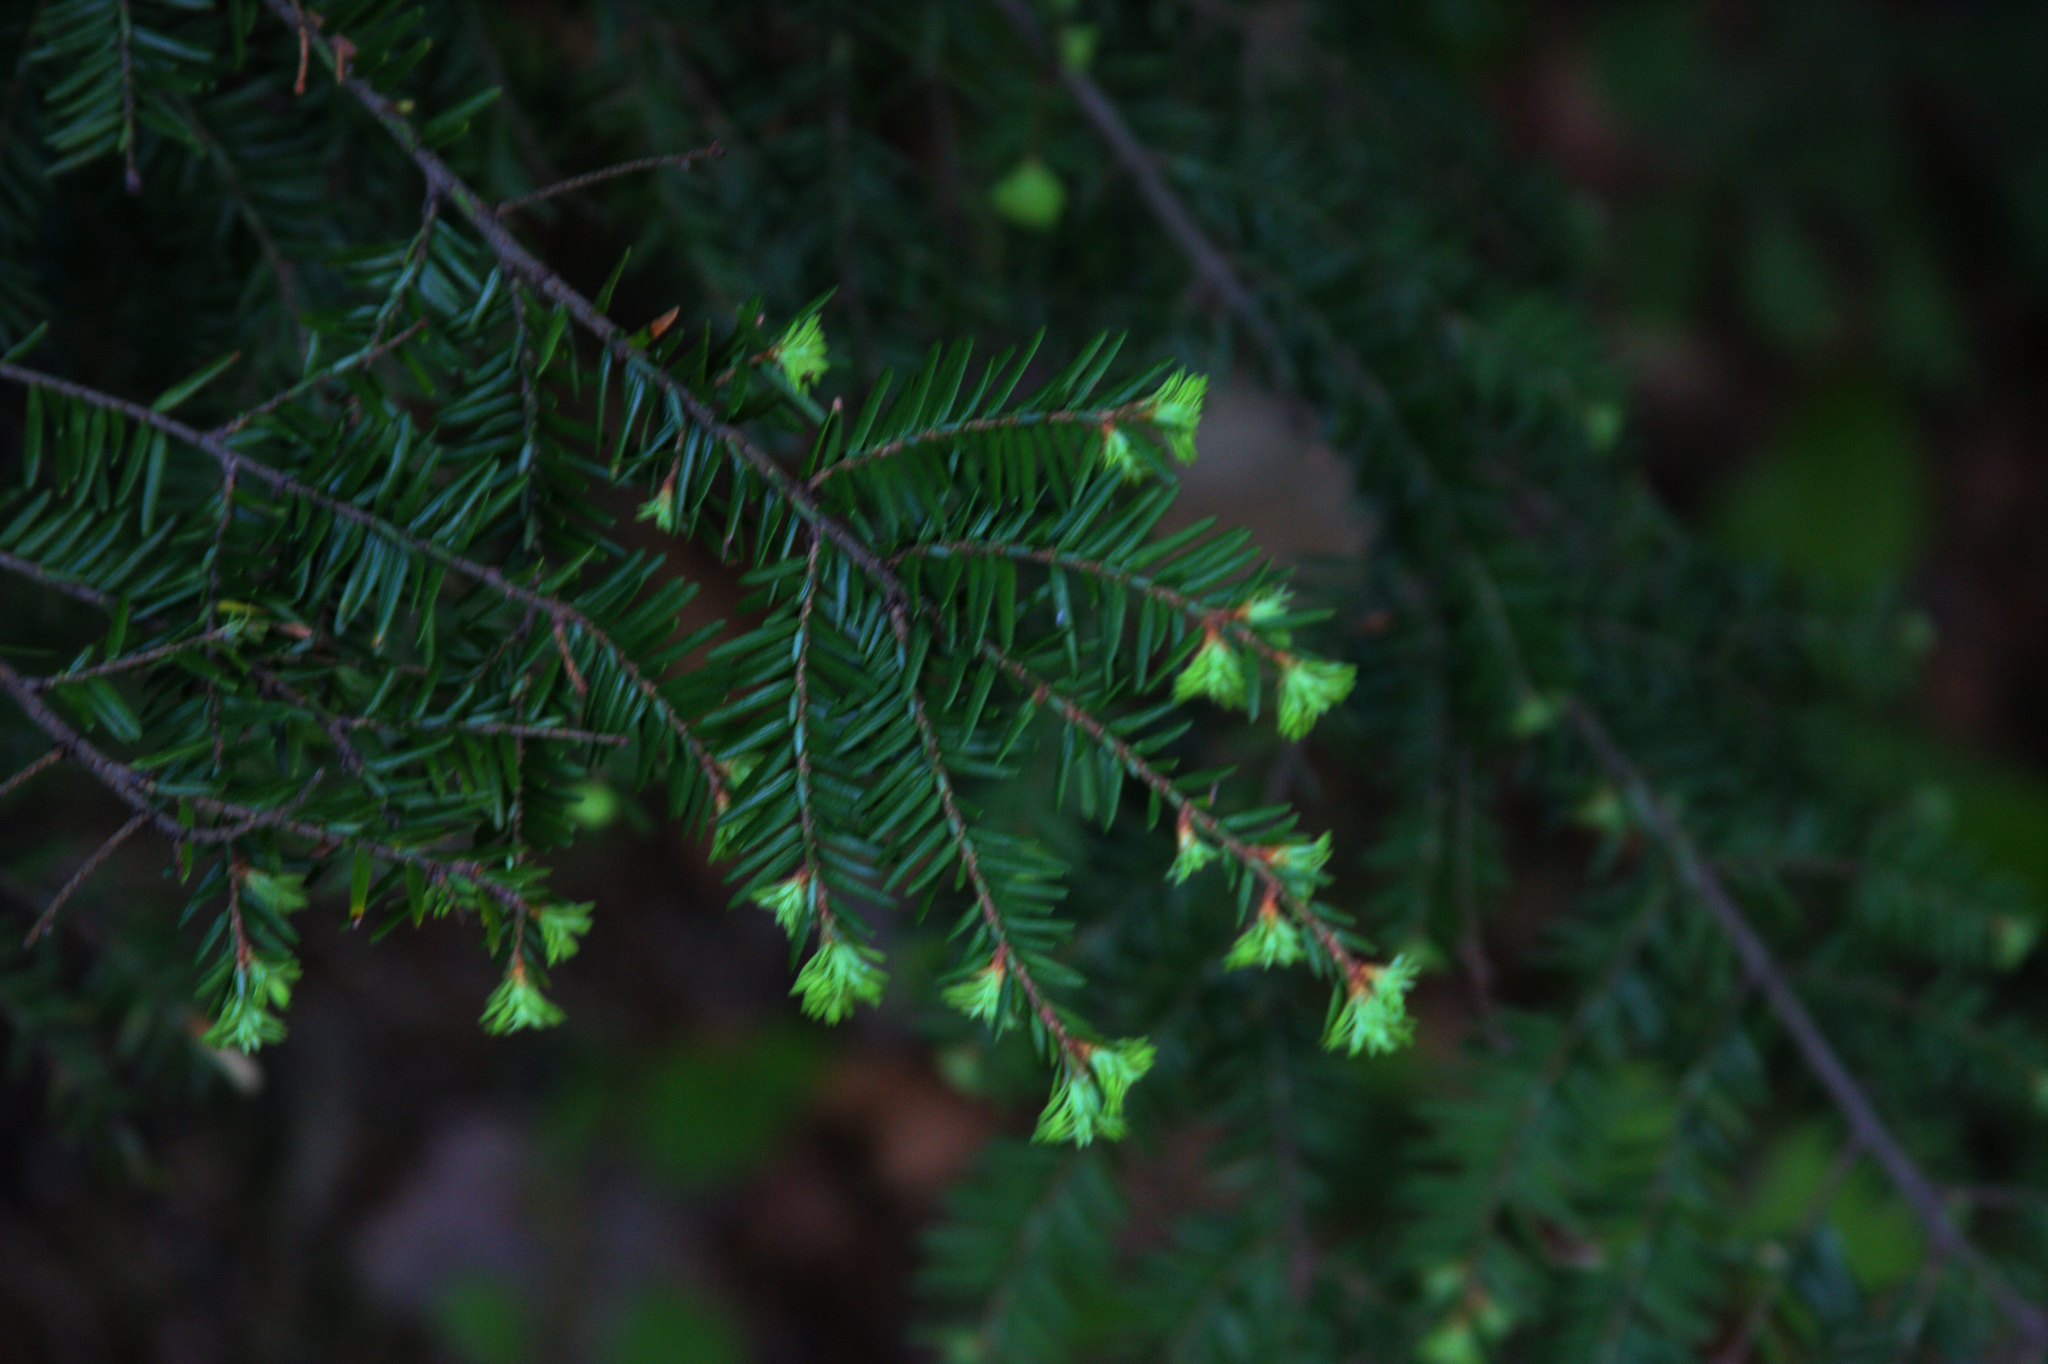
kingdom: Plantae
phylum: Tracheophyta
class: Pinopsida
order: Pinales
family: Pinaceae
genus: Tsuga
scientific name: Tsuga canadensis
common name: Eastern hemlock
